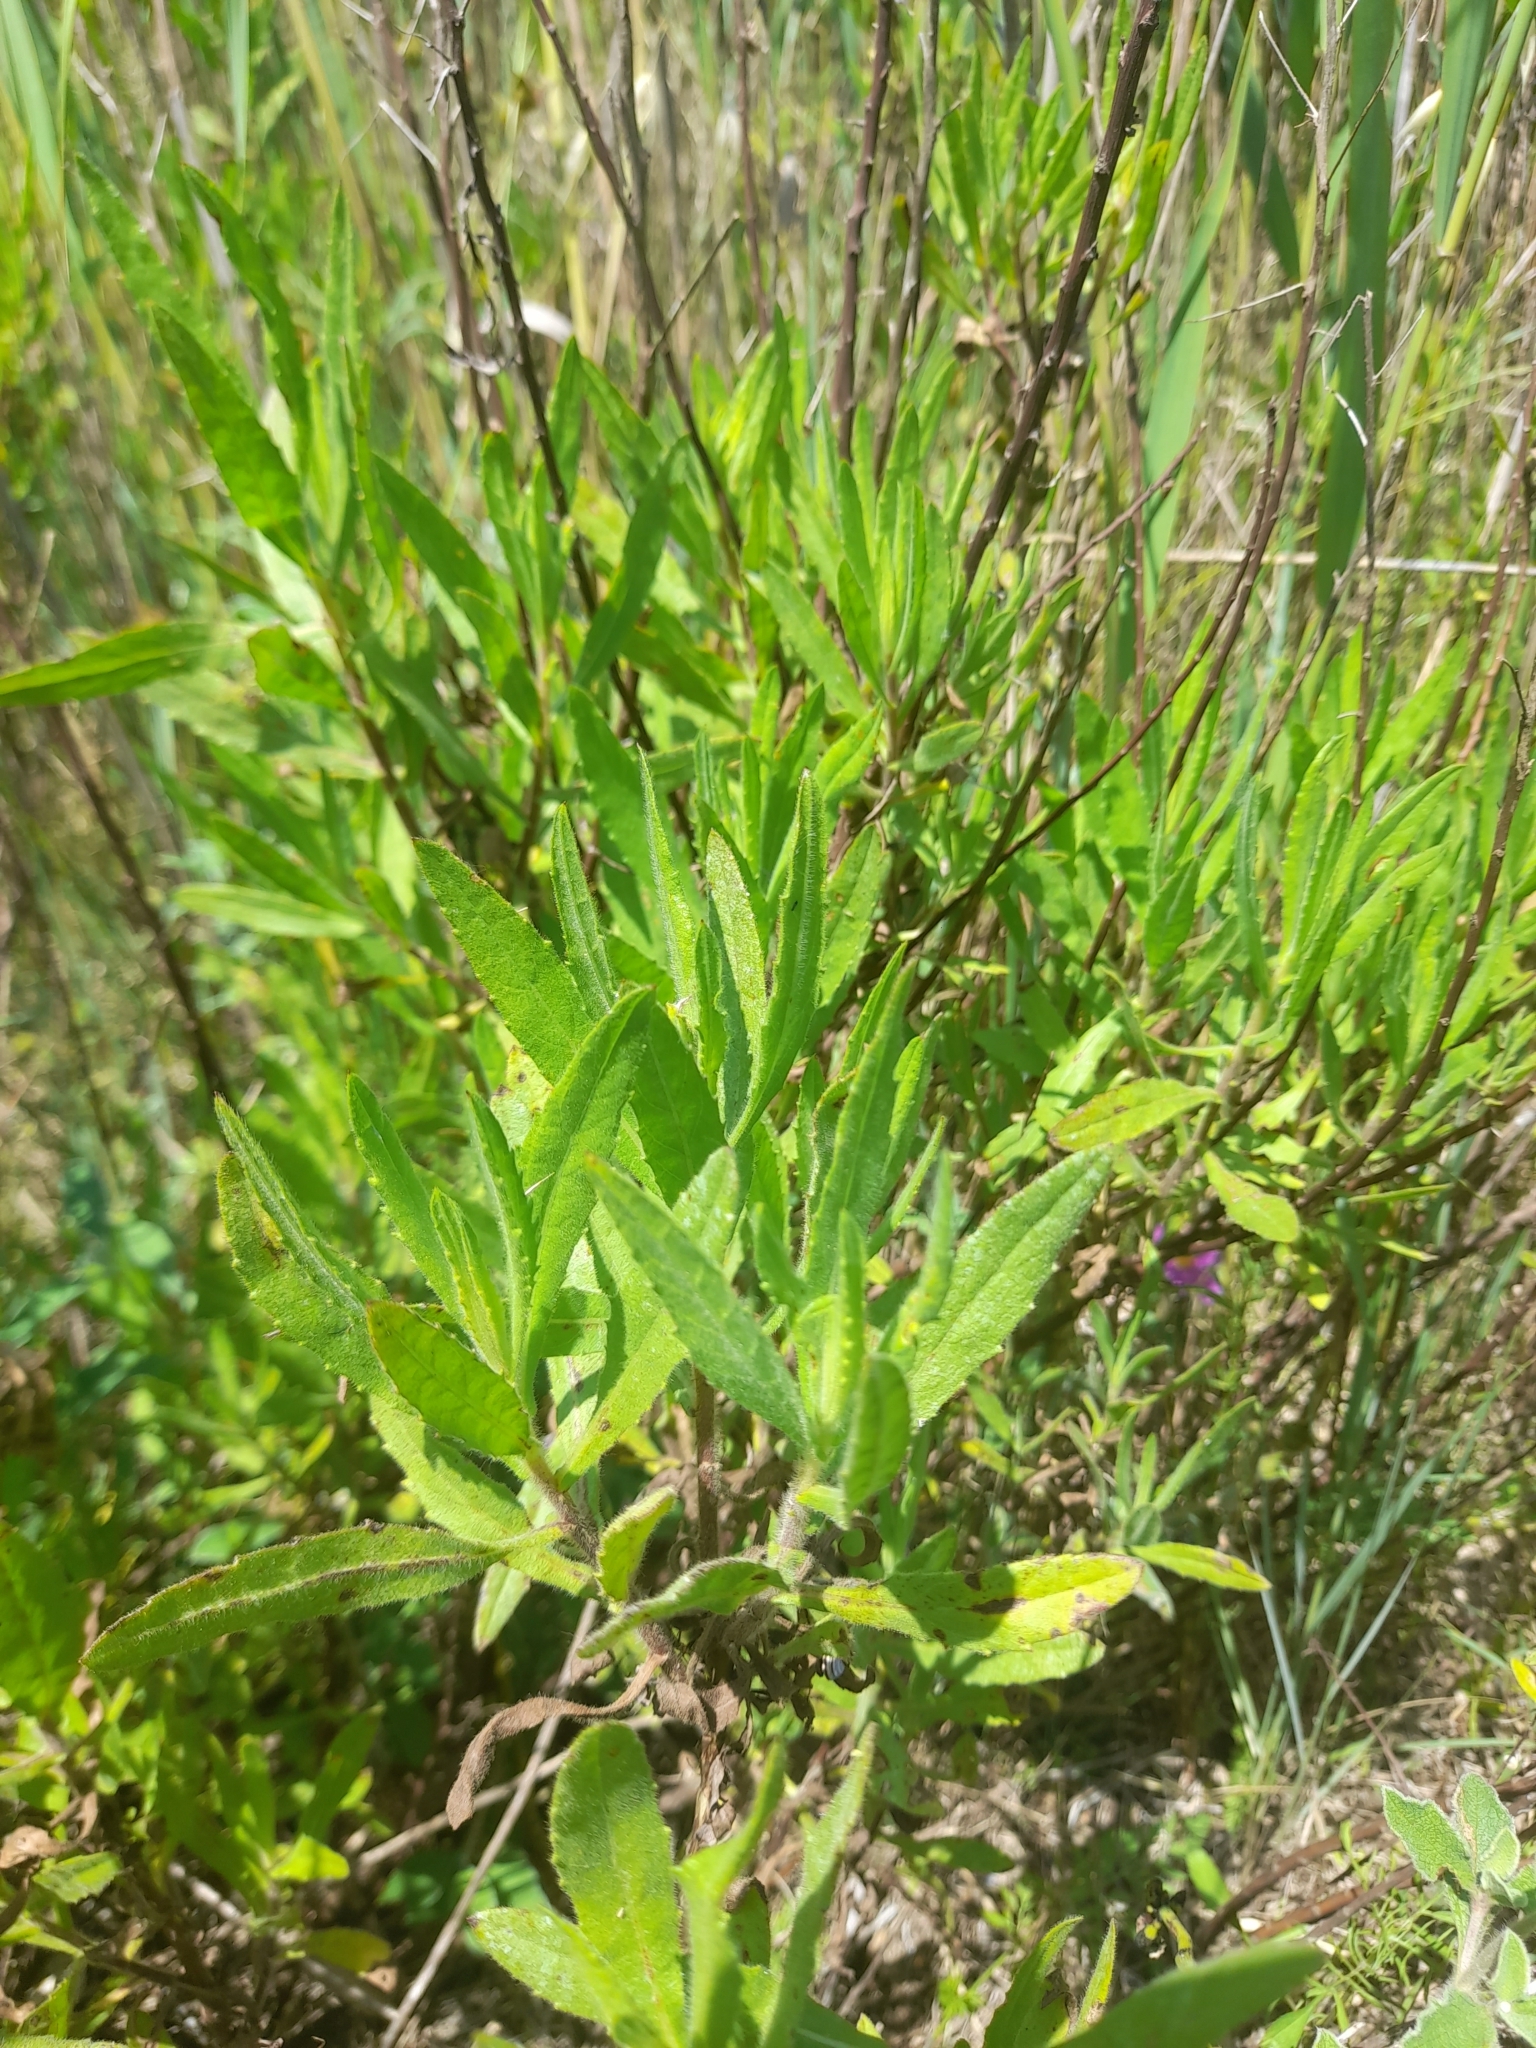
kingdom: Plantae
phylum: Tracheophyta
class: Magnoliopsida
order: Asterales
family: Asteraceae
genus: Dittrichia
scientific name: Dittrichia viscosa
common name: Woody fleabane
